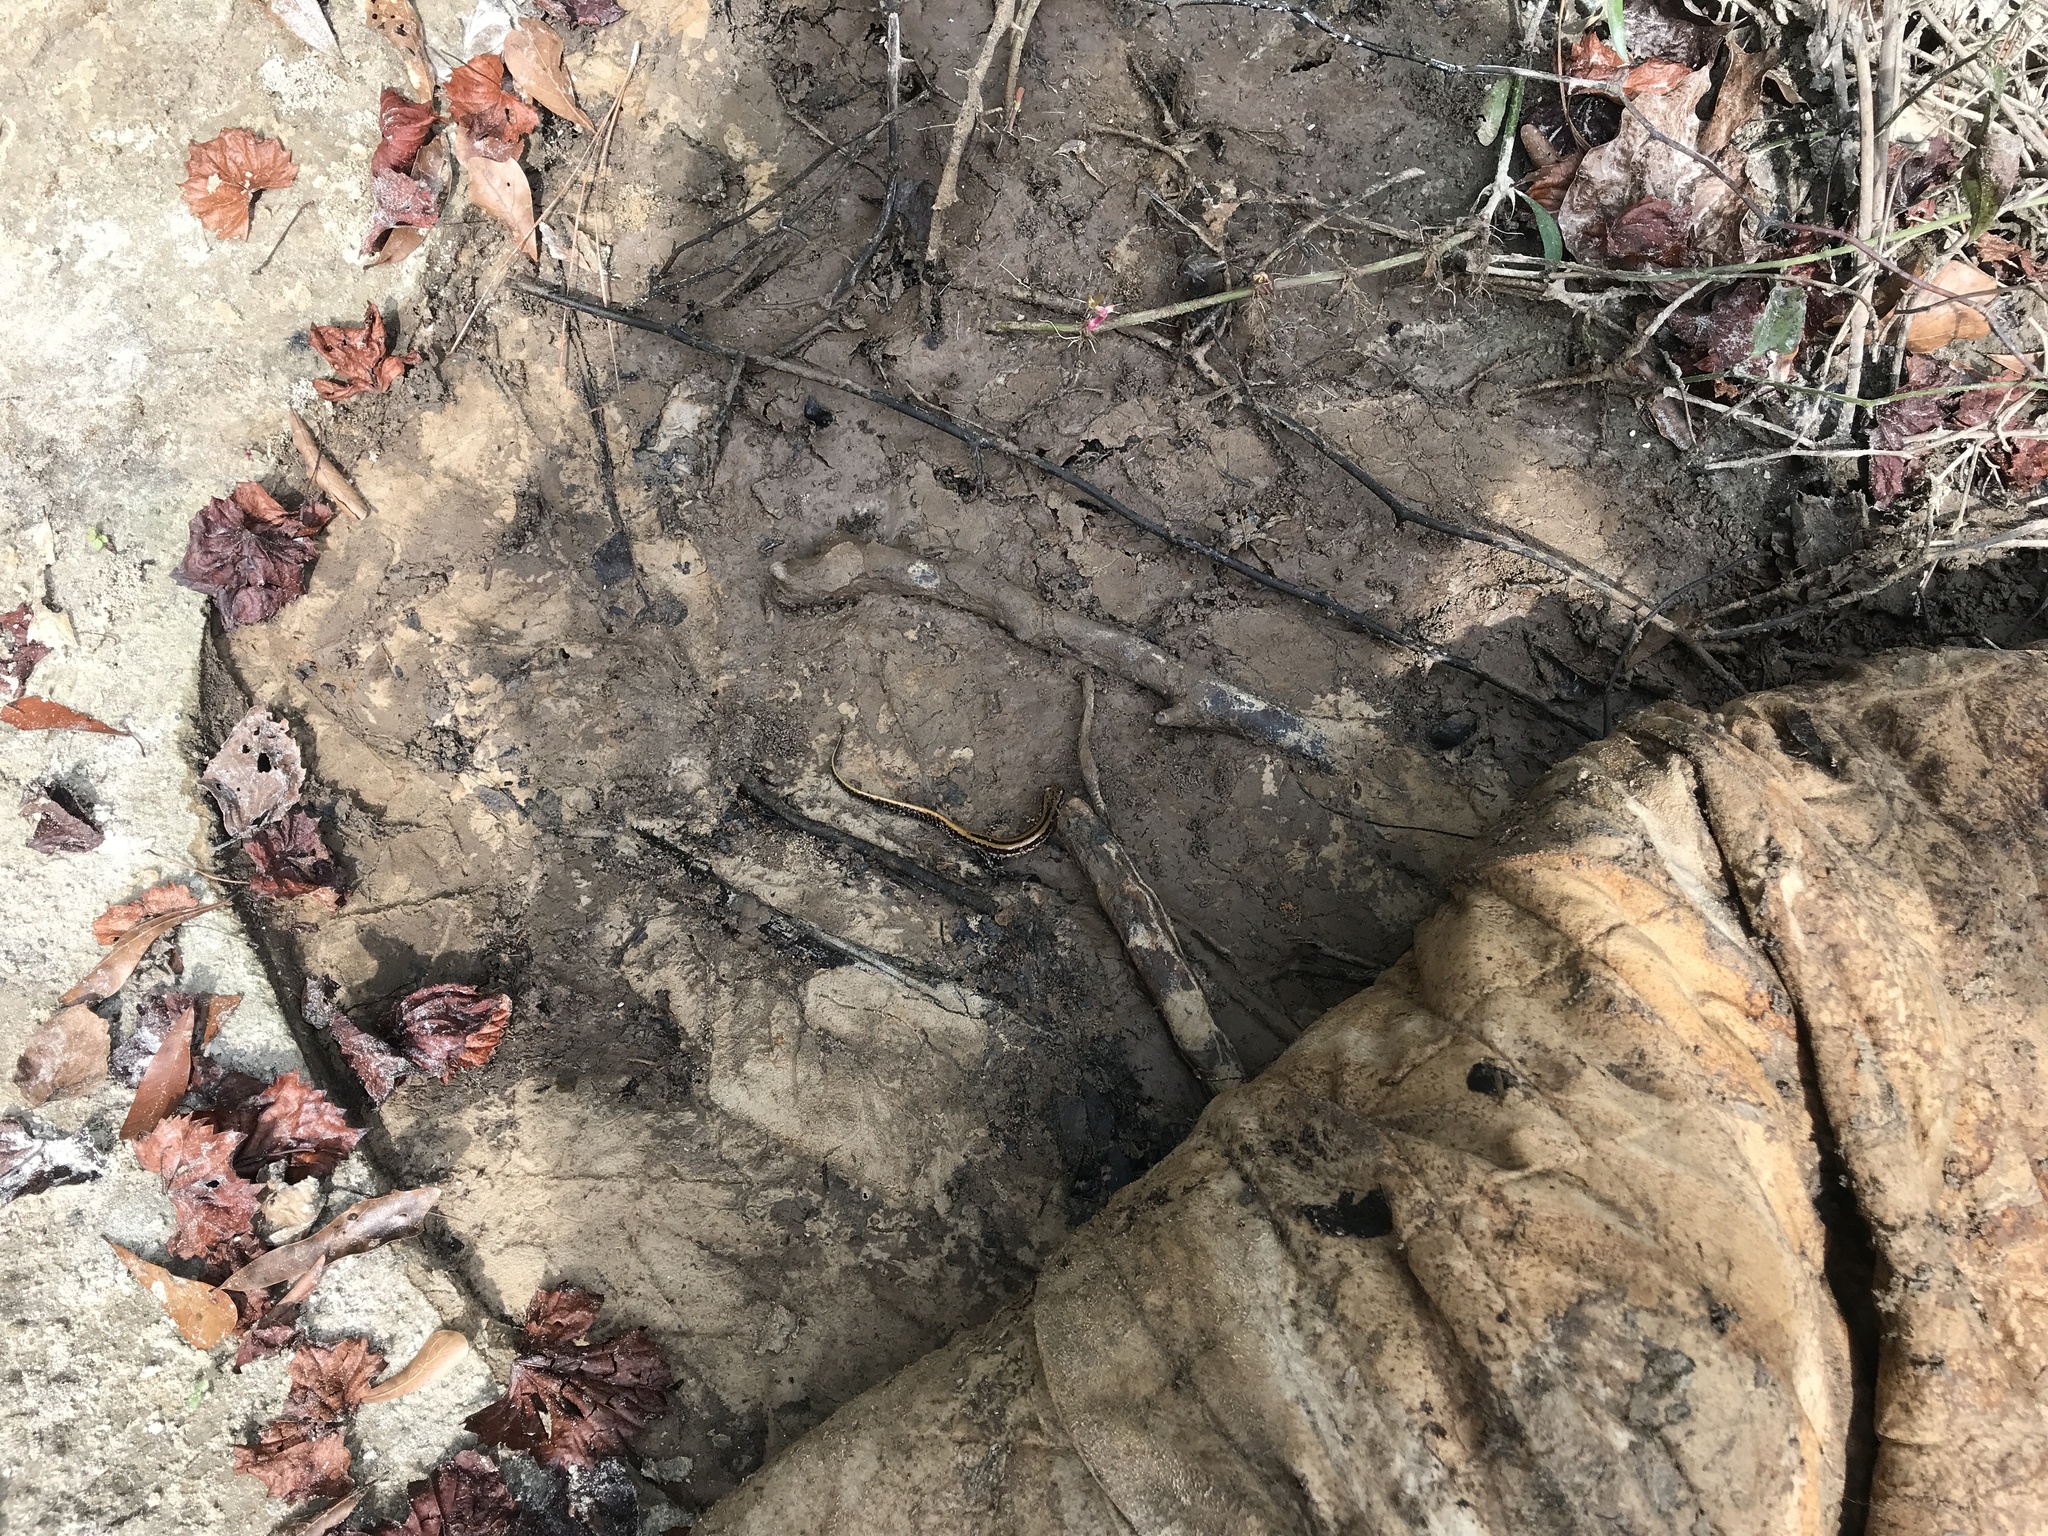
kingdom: Animalia
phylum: Chordata
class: Amphibia
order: Caudata
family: Plethodontidae
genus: Eurycea
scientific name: Eurycea guttolineata
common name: Three-lined salamander
